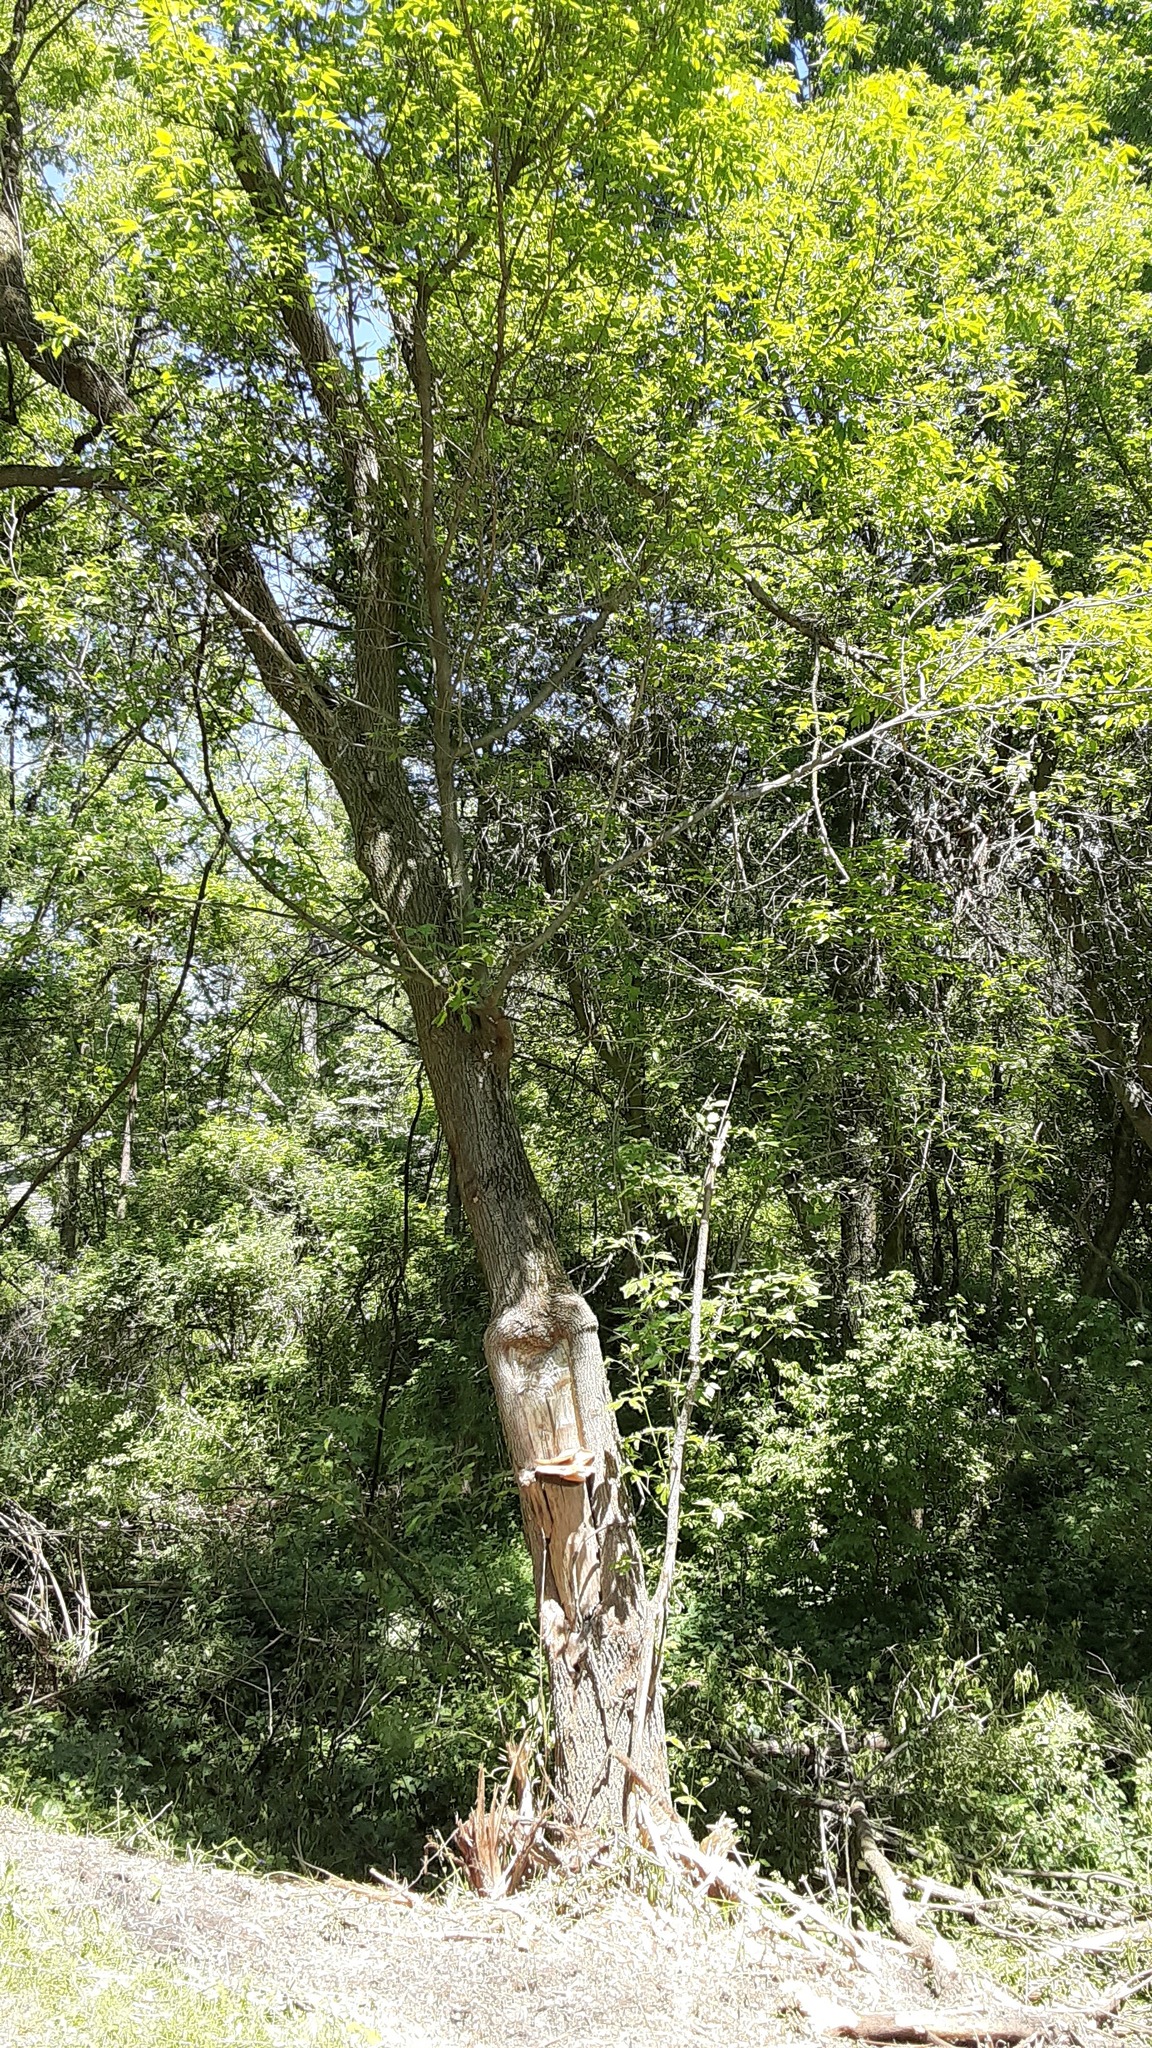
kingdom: Fungi
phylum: Basidiomycota
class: Agaricomycetes
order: Polyporales
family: Polyporaceae
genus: Cerioporus
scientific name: Cerioporus squamosus
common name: Dryad's saddle
